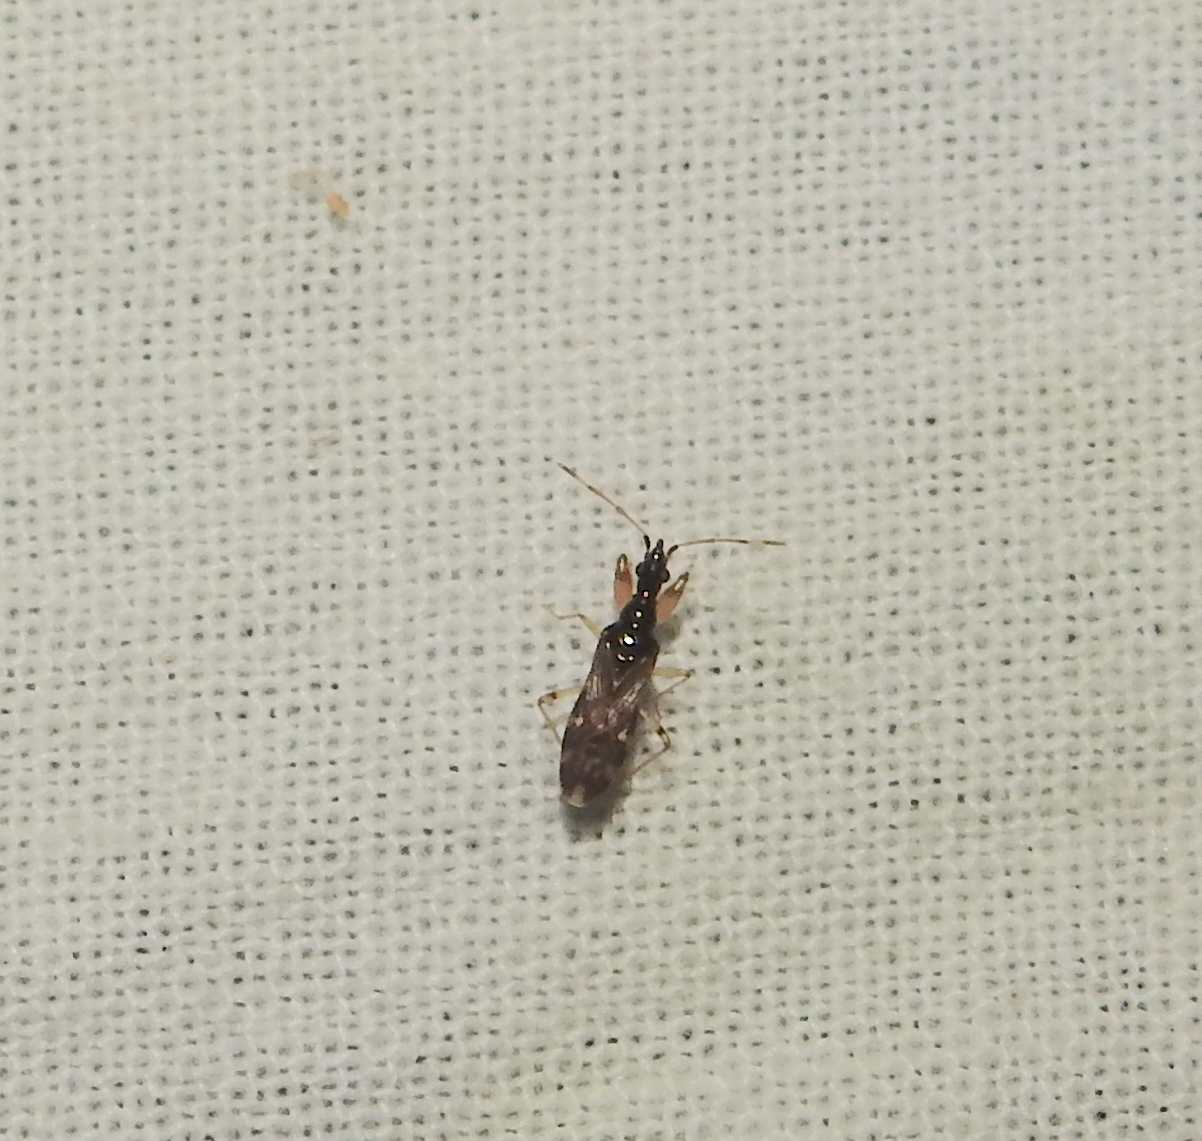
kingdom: Animalia
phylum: Arthropoda
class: Insecta
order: Hemiptera
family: Rhyparochromidae
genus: Altomarus
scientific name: Altomarus greeni
